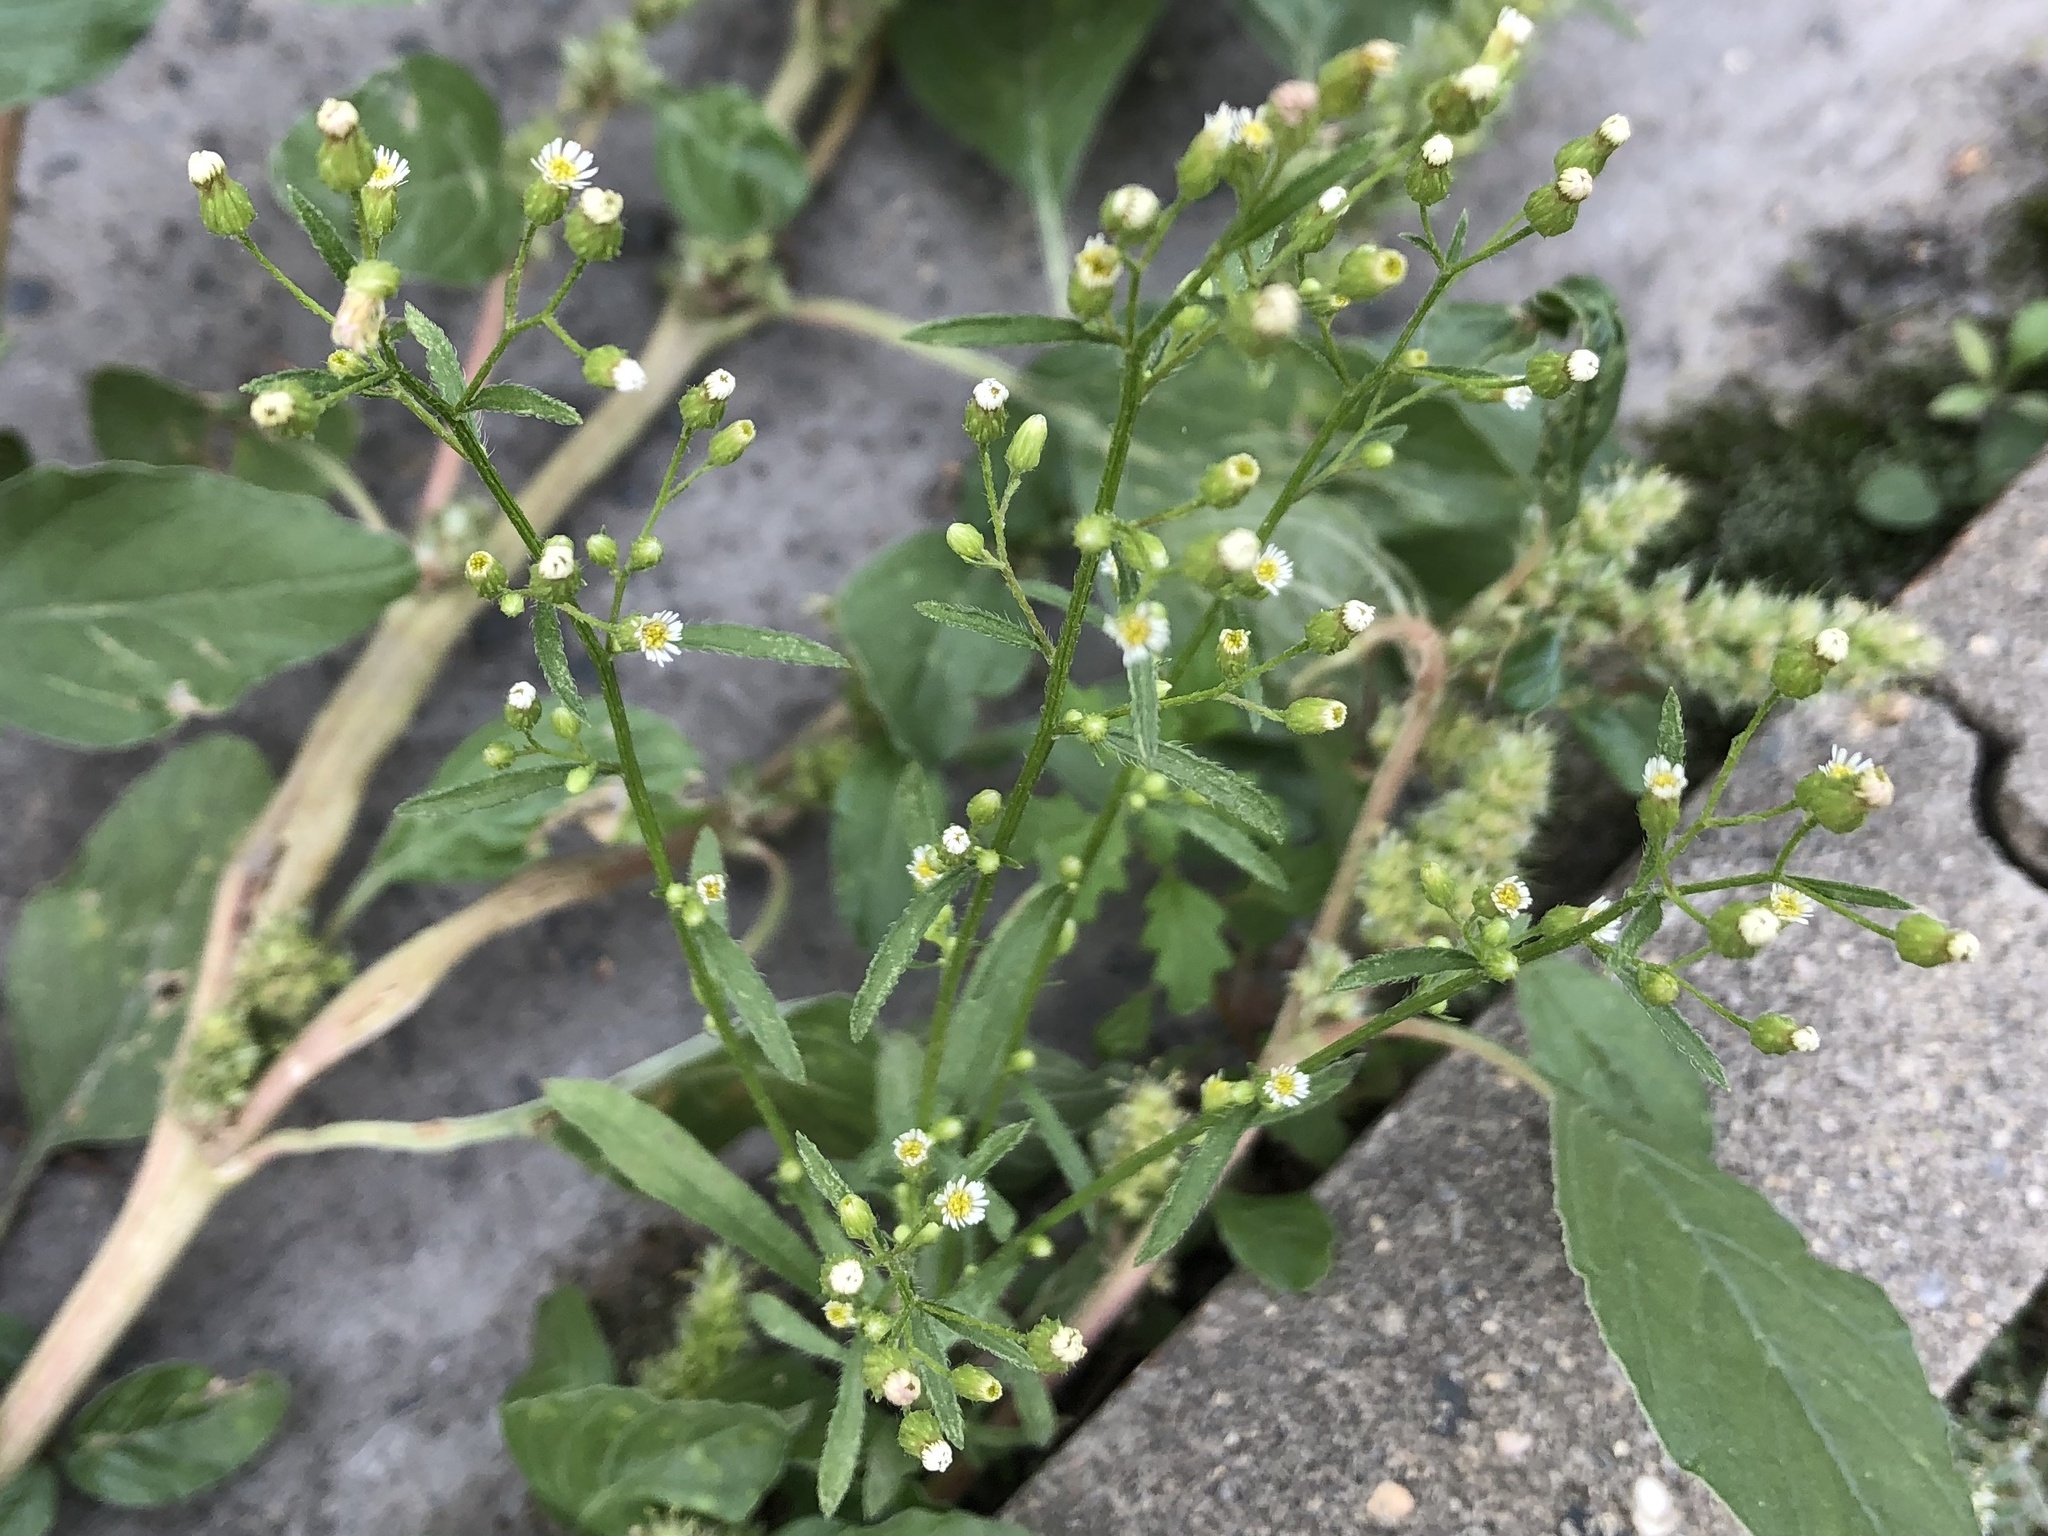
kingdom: Plantae
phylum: Tracheophyta
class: Magnoliopsida
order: Asterales
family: Asteraceae
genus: Erigeron
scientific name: Erigeron canadensis
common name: Canadian fleabane
